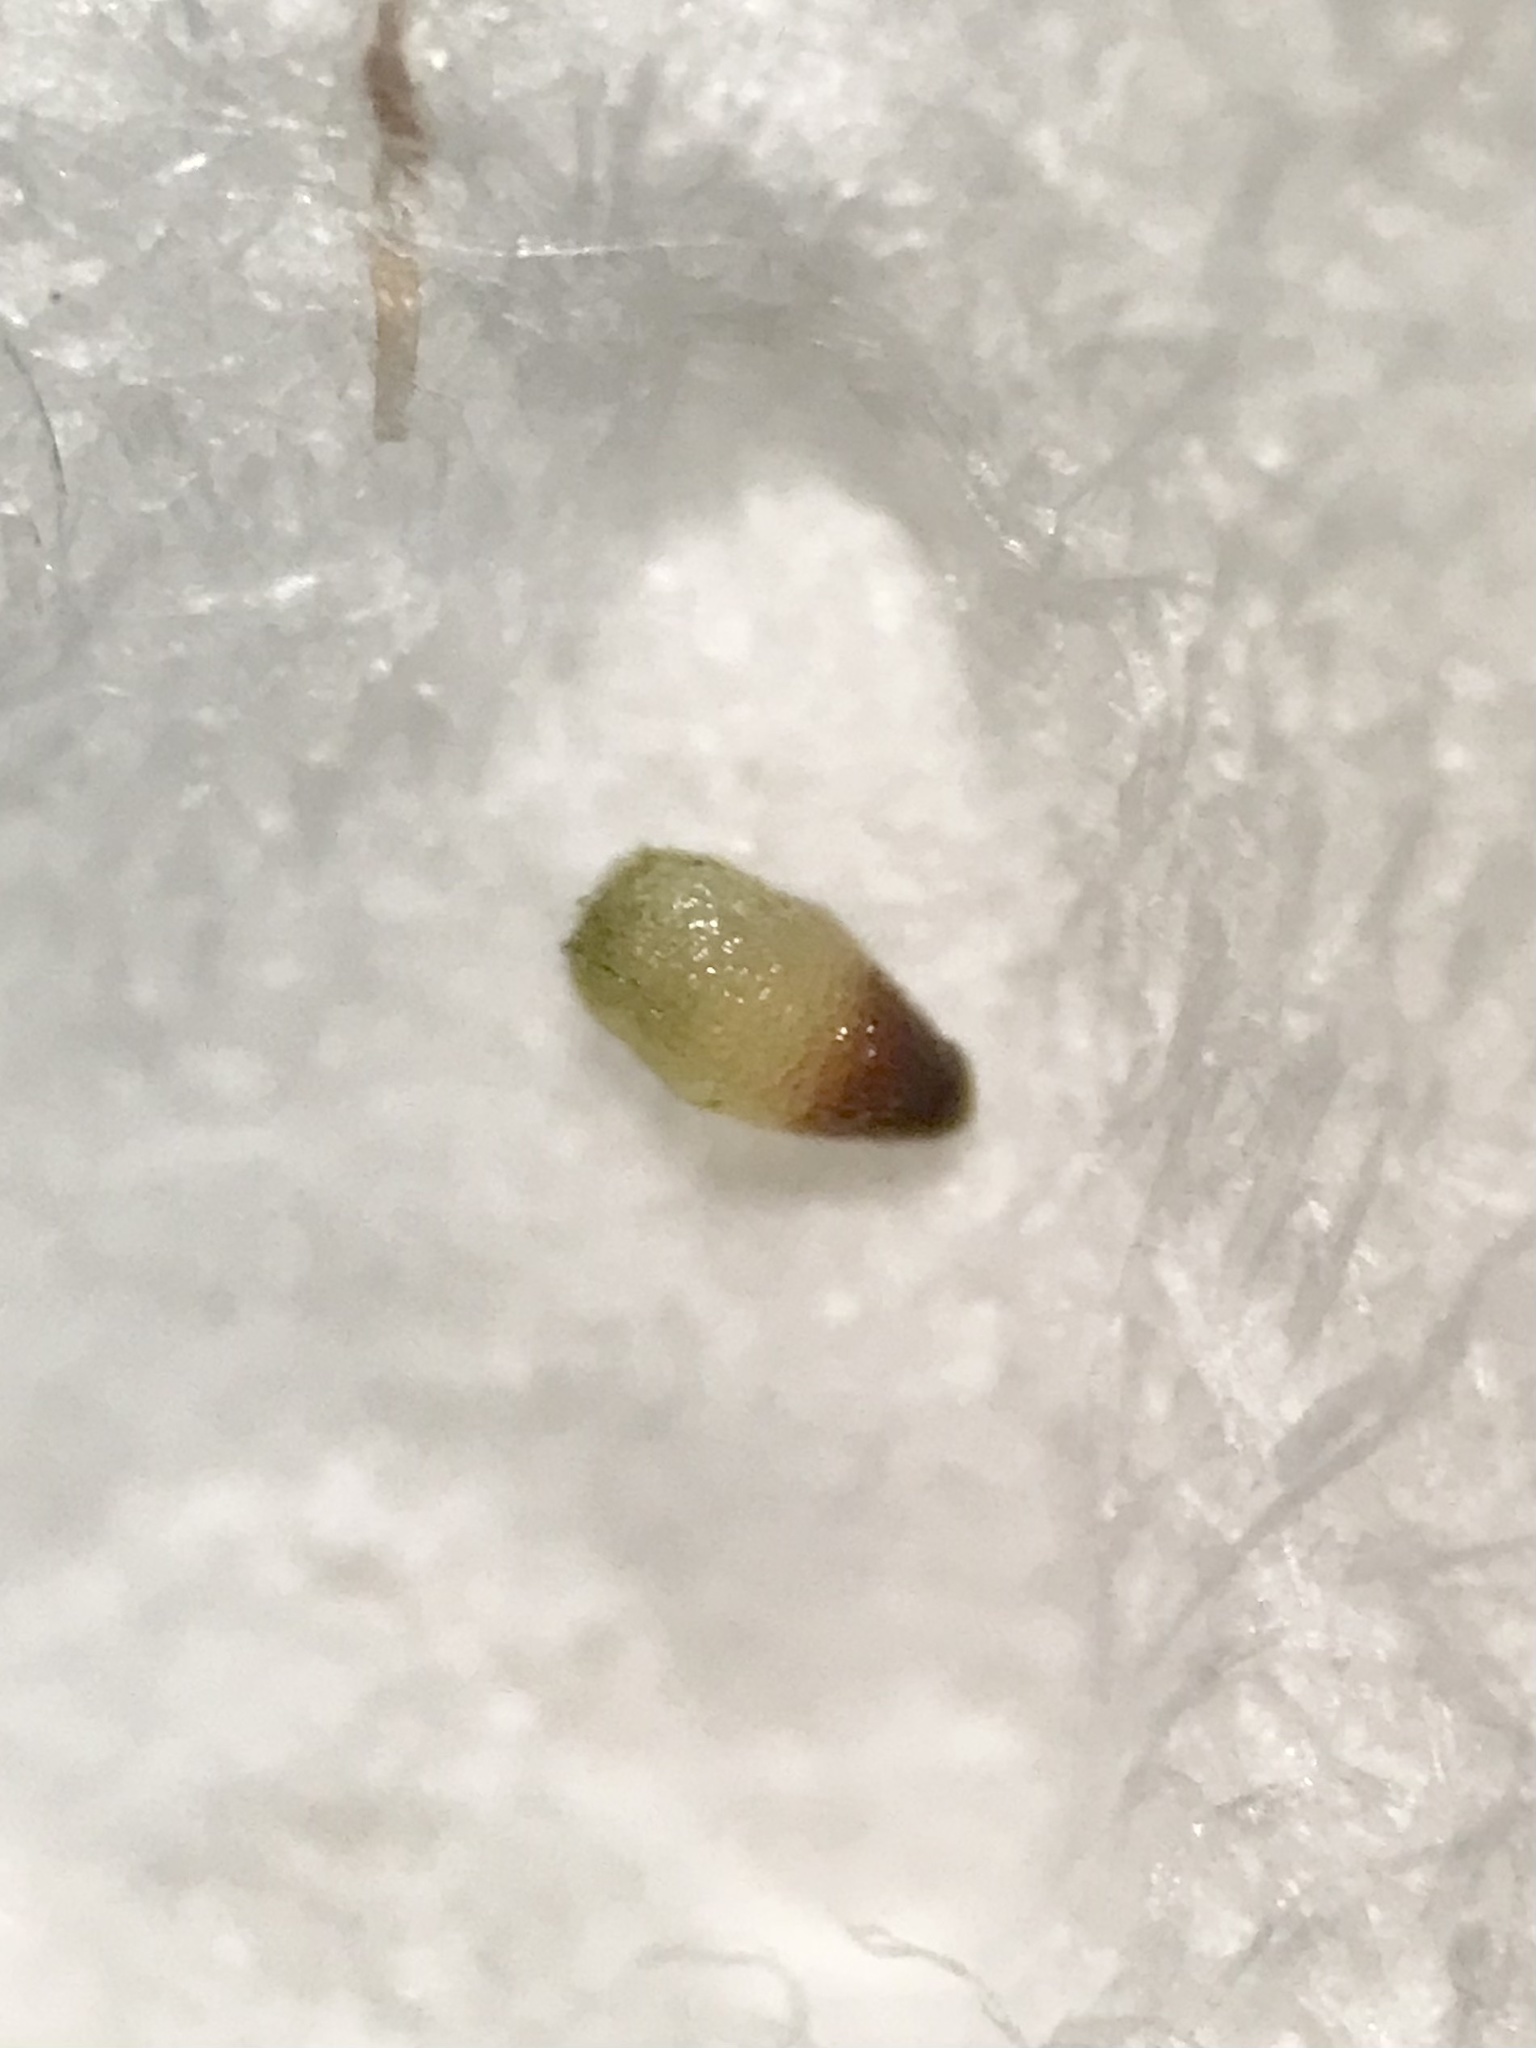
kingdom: Plantae
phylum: Tracheophyta
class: Polypodiopsida
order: Salviniales
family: Salviniaceae
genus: Azolla
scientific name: Azolla cristata
